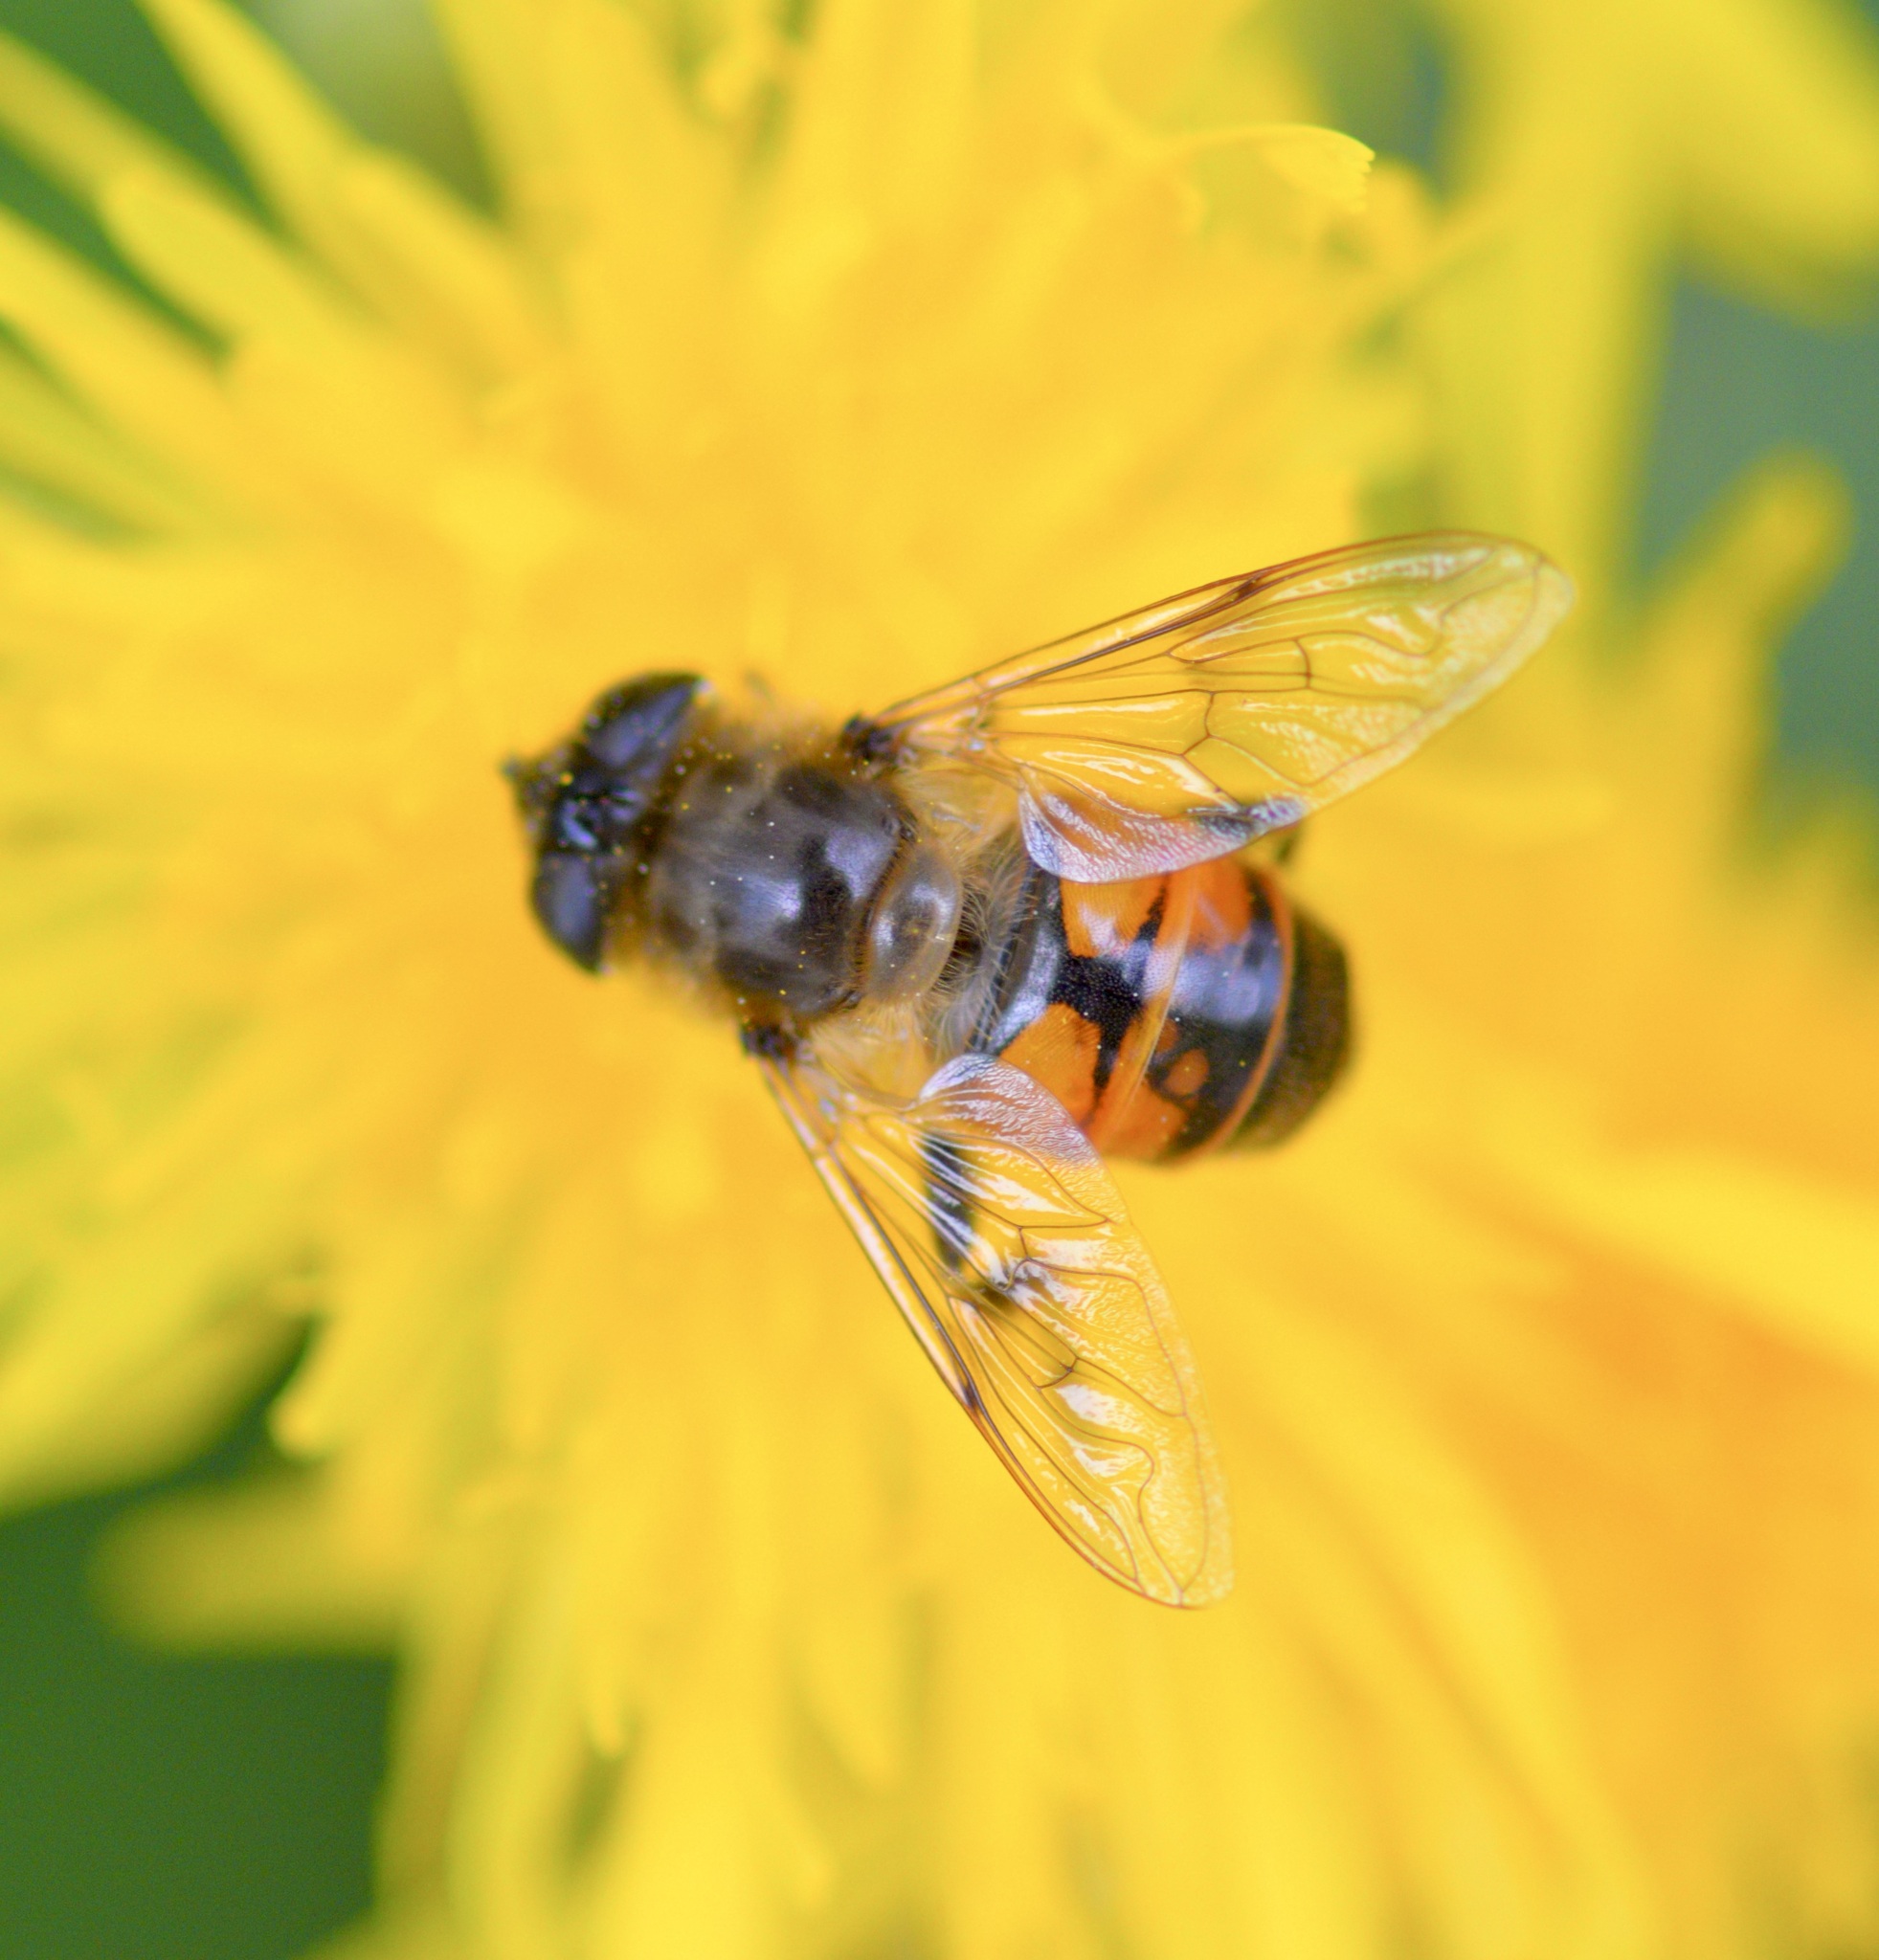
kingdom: Animalia
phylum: Arthropoda
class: Insecta
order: Diptera
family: Syrphidae
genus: Eristalis
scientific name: Eristalis tenax
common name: Drone fly
